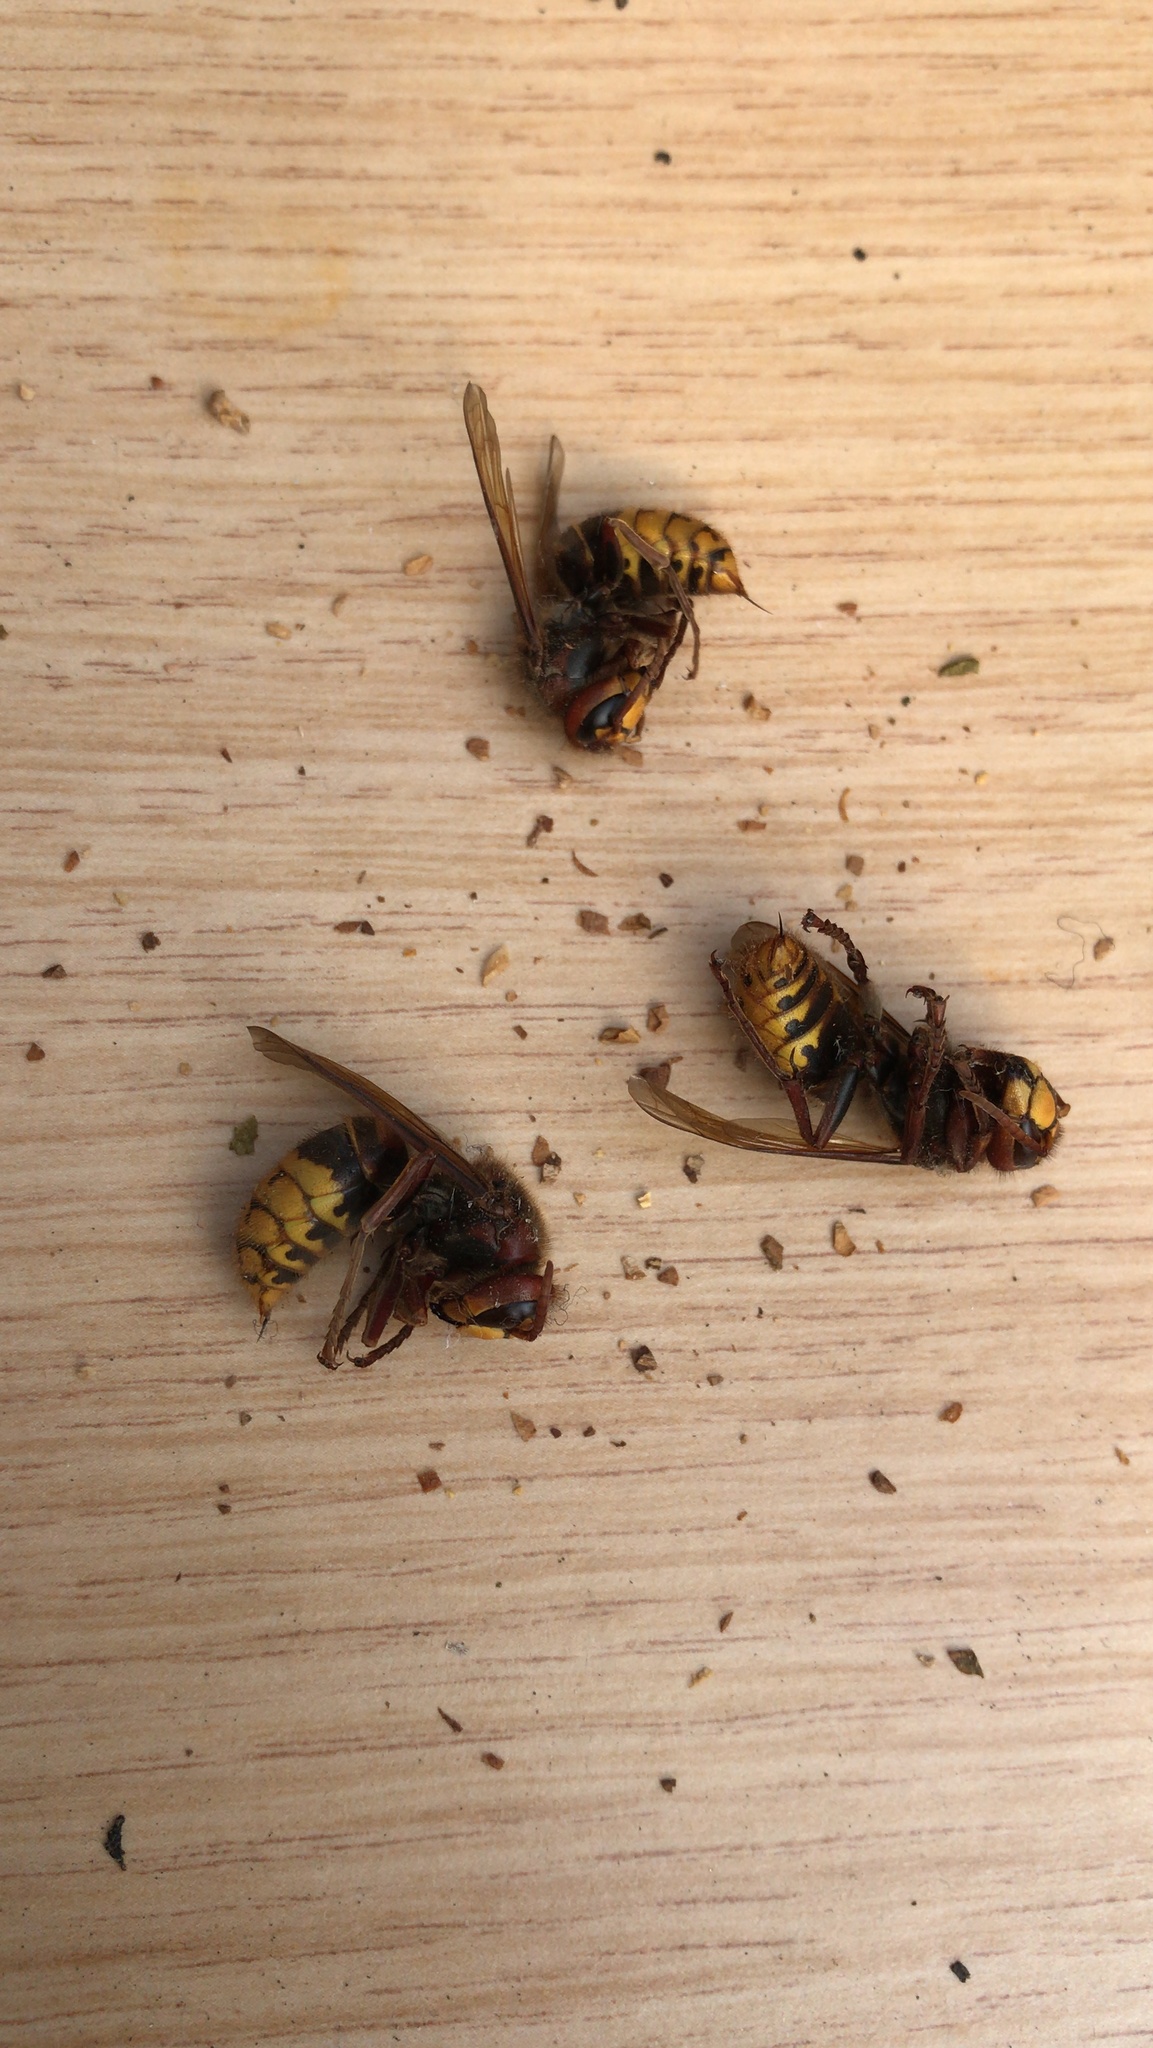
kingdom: Animalia
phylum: Arthropoda
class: Insecta
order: Hymenoptera
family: Vespidae
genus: Vespa
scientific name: Vespa crabro
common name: Hornet
